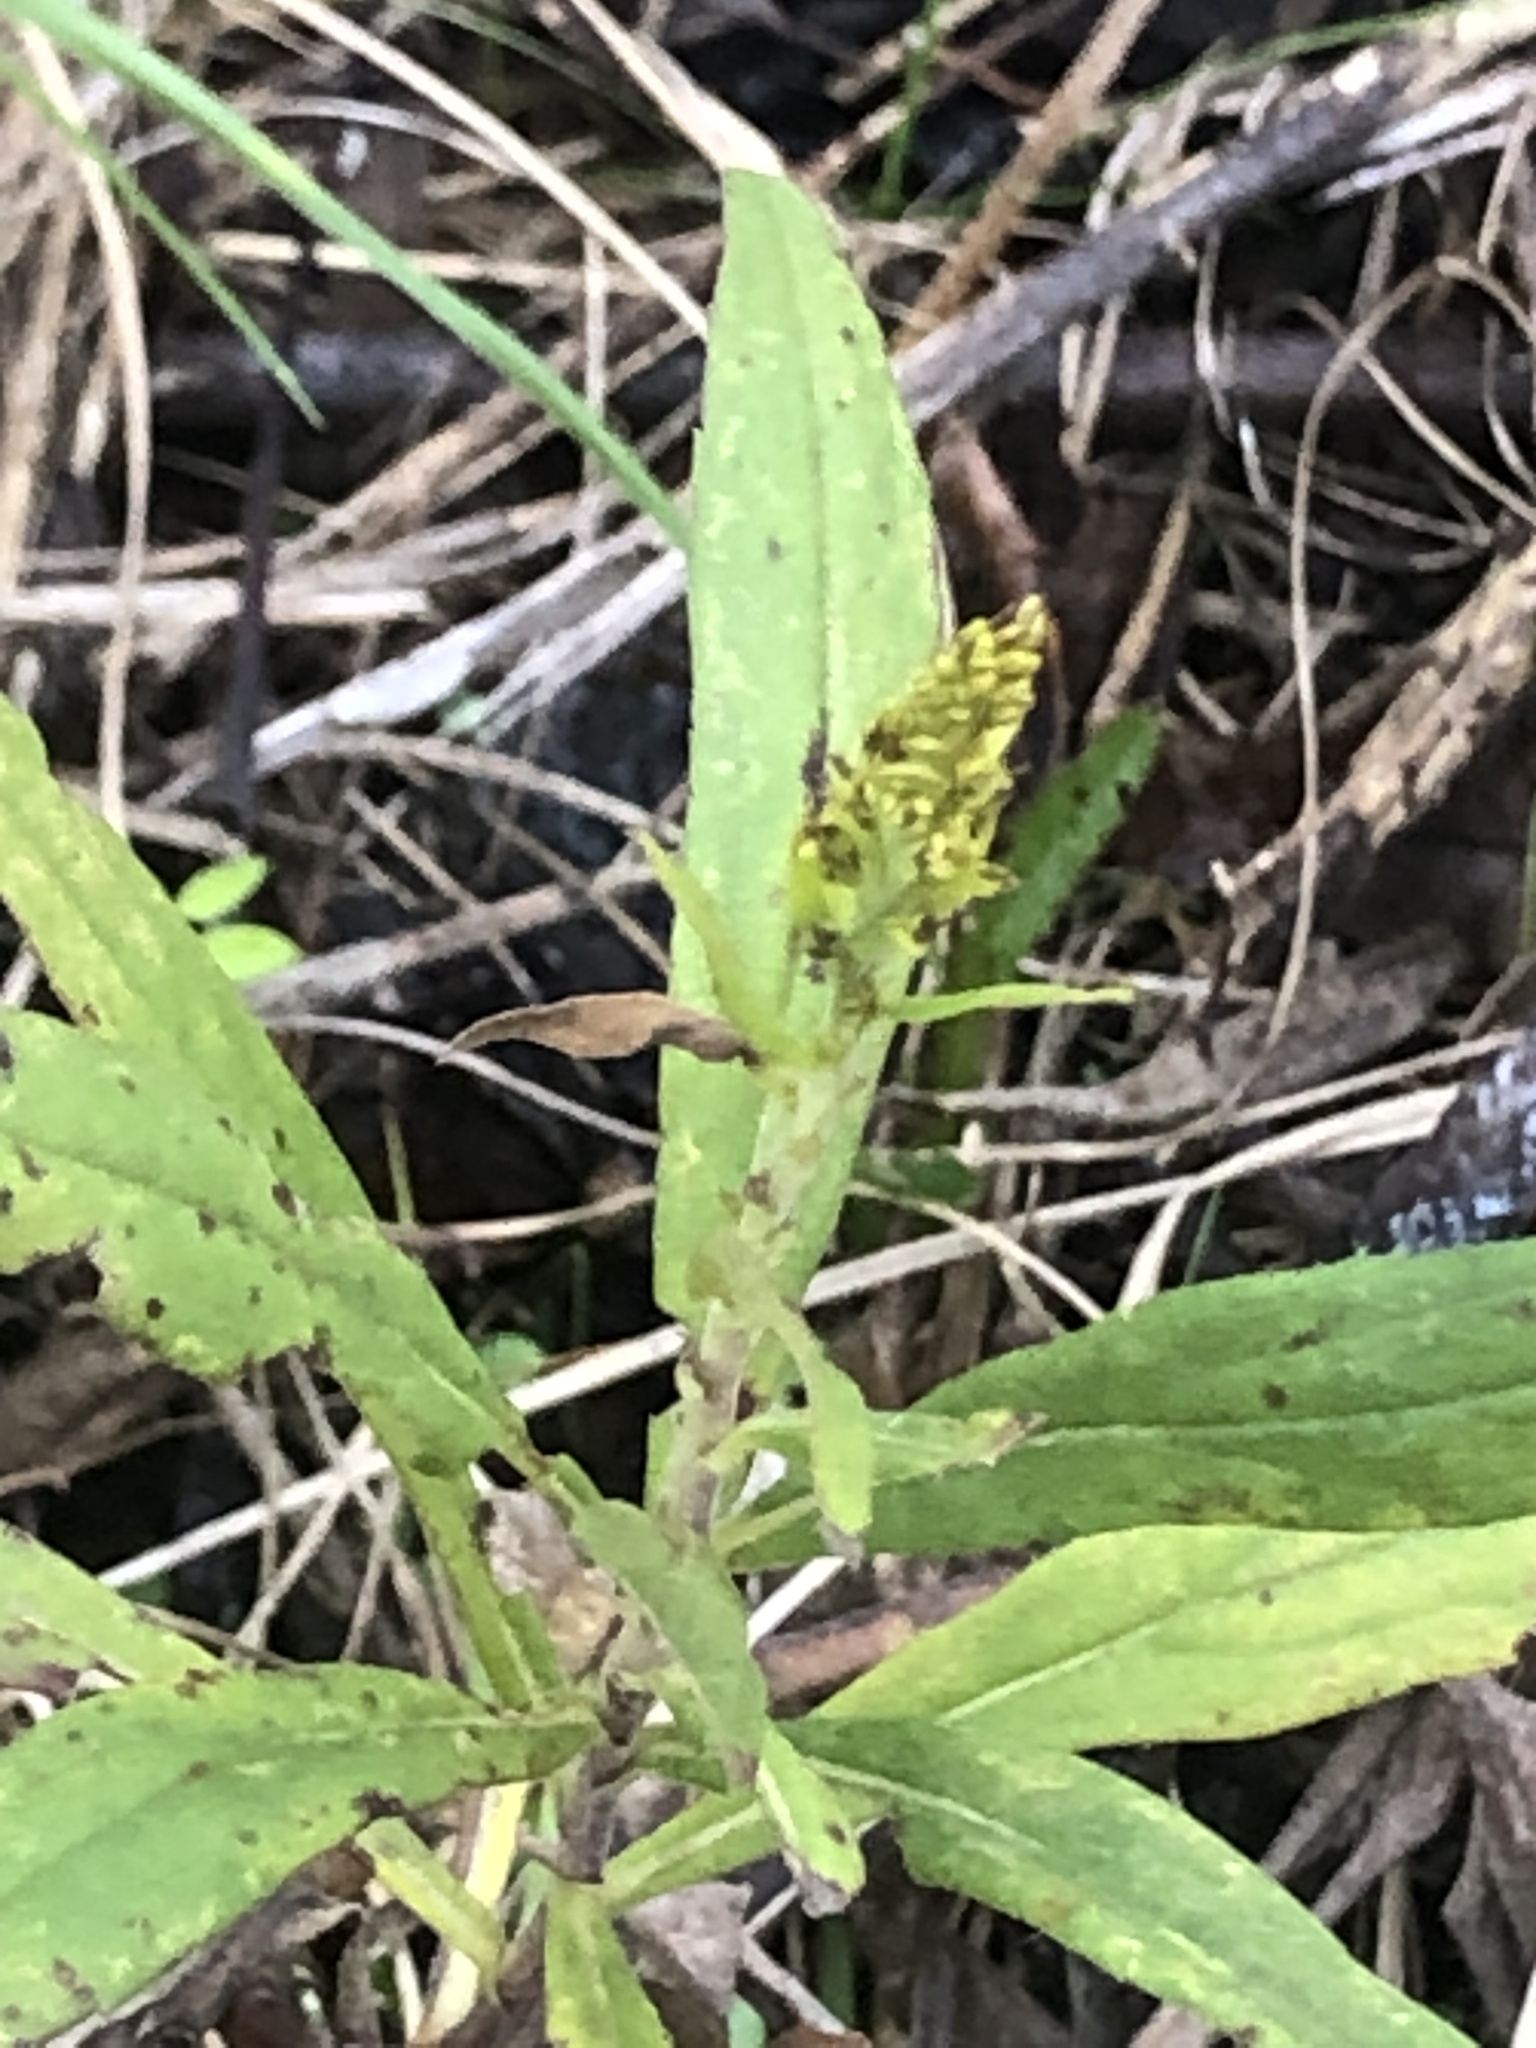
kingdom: Plantae
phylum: Tracheophyta
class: Magnoliopsida
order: Asterales
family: Asteraceae
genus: Solidago
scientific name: Solidago altissima
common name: Late goldenrod
